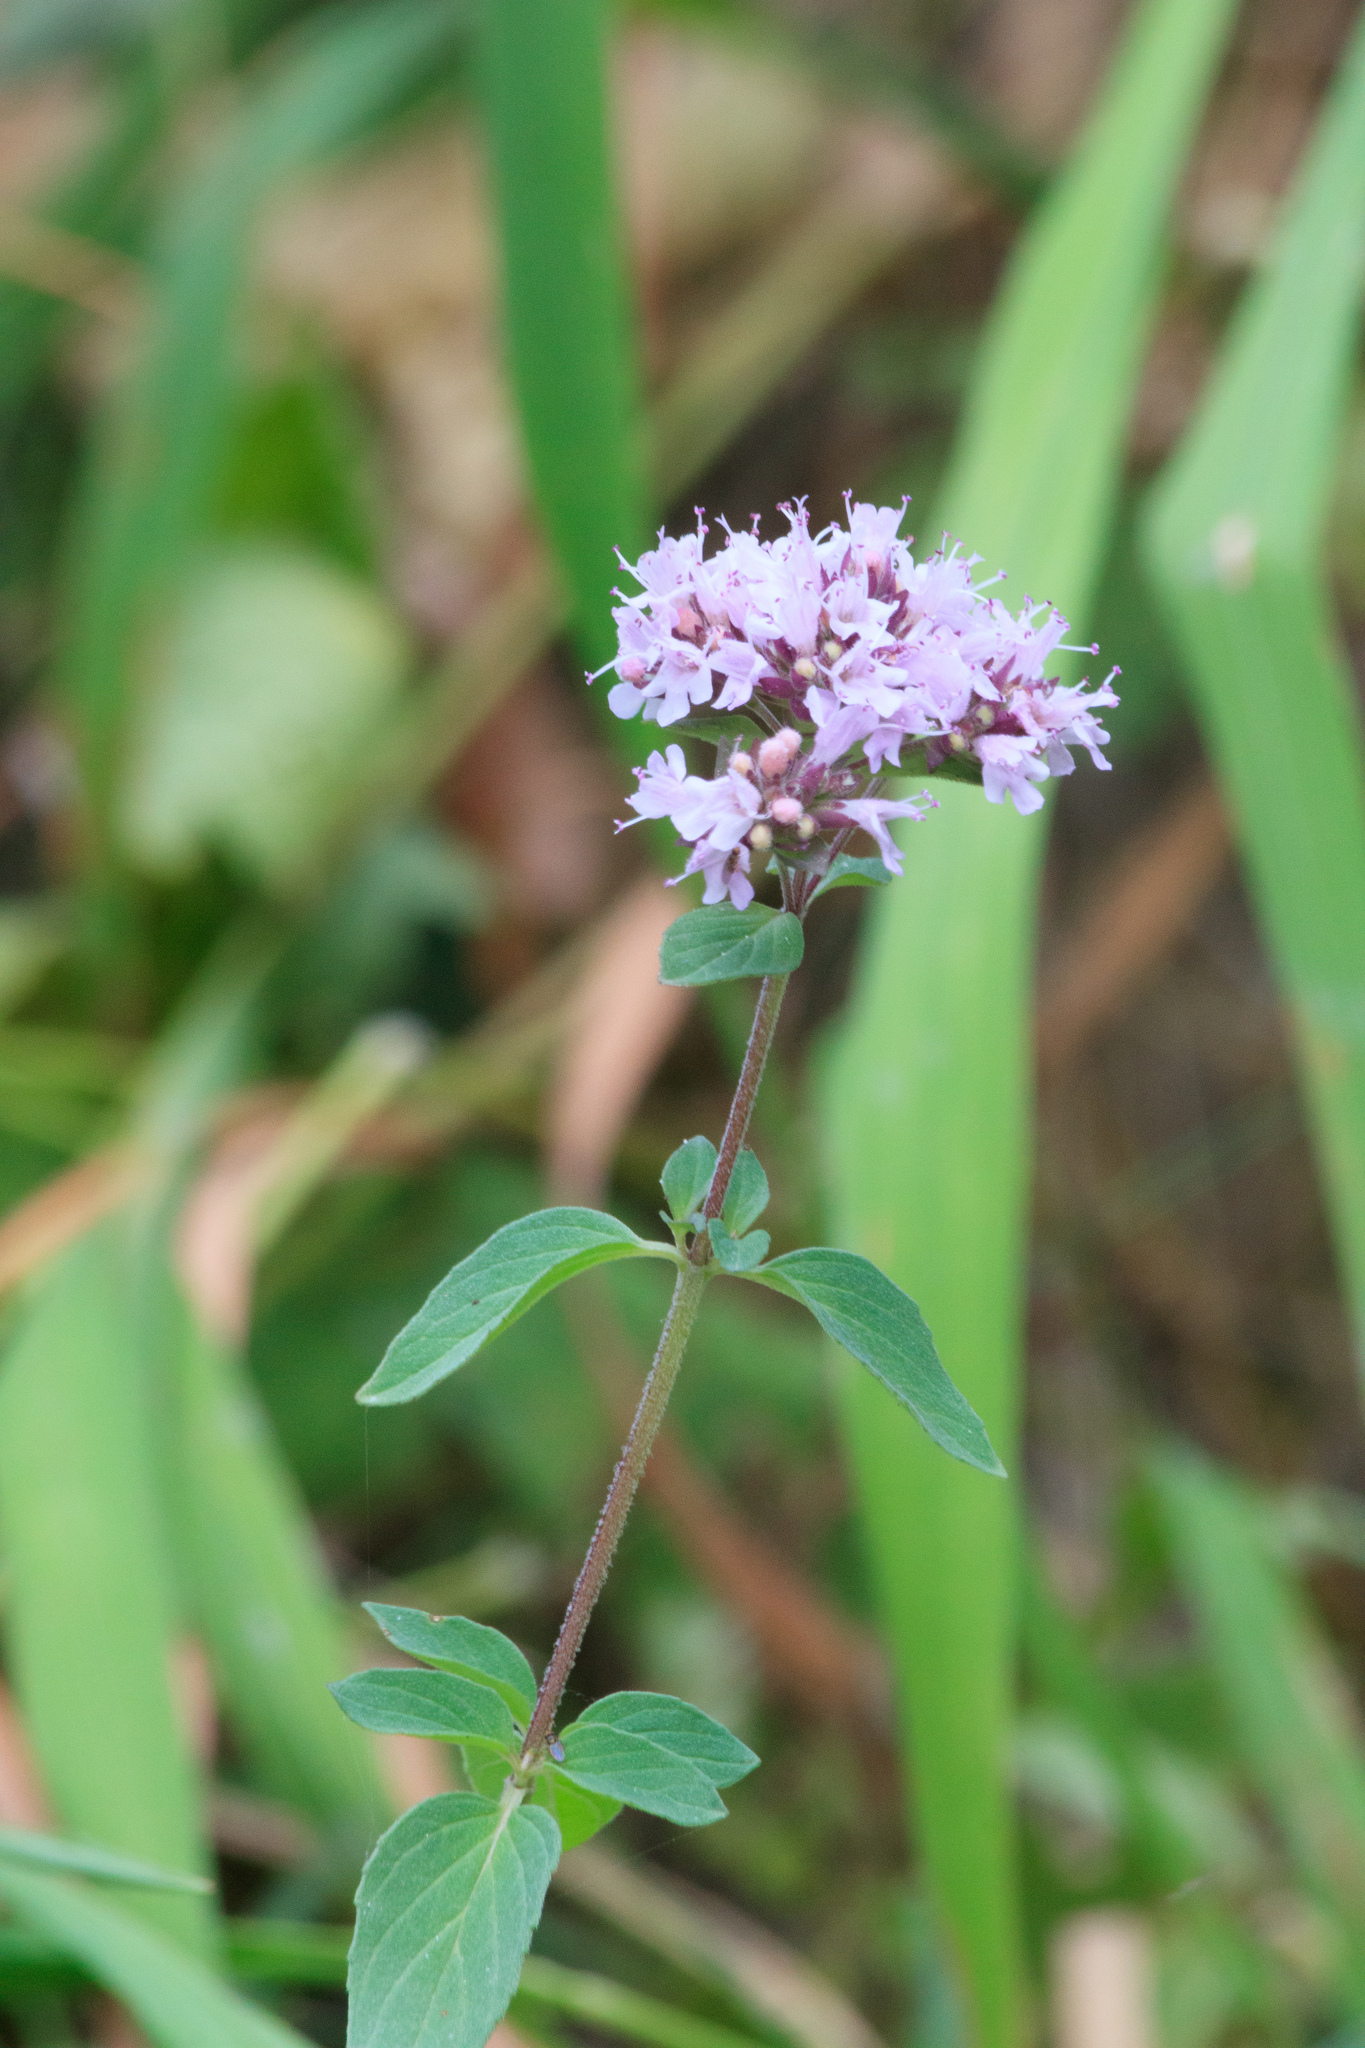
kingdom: Plantae
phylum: Tracheophyta
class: Magnoliopsida
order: Lamiales
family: Lamiaceae
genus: Origanum
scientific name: Origanum vulgare
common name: Wild marjoram
